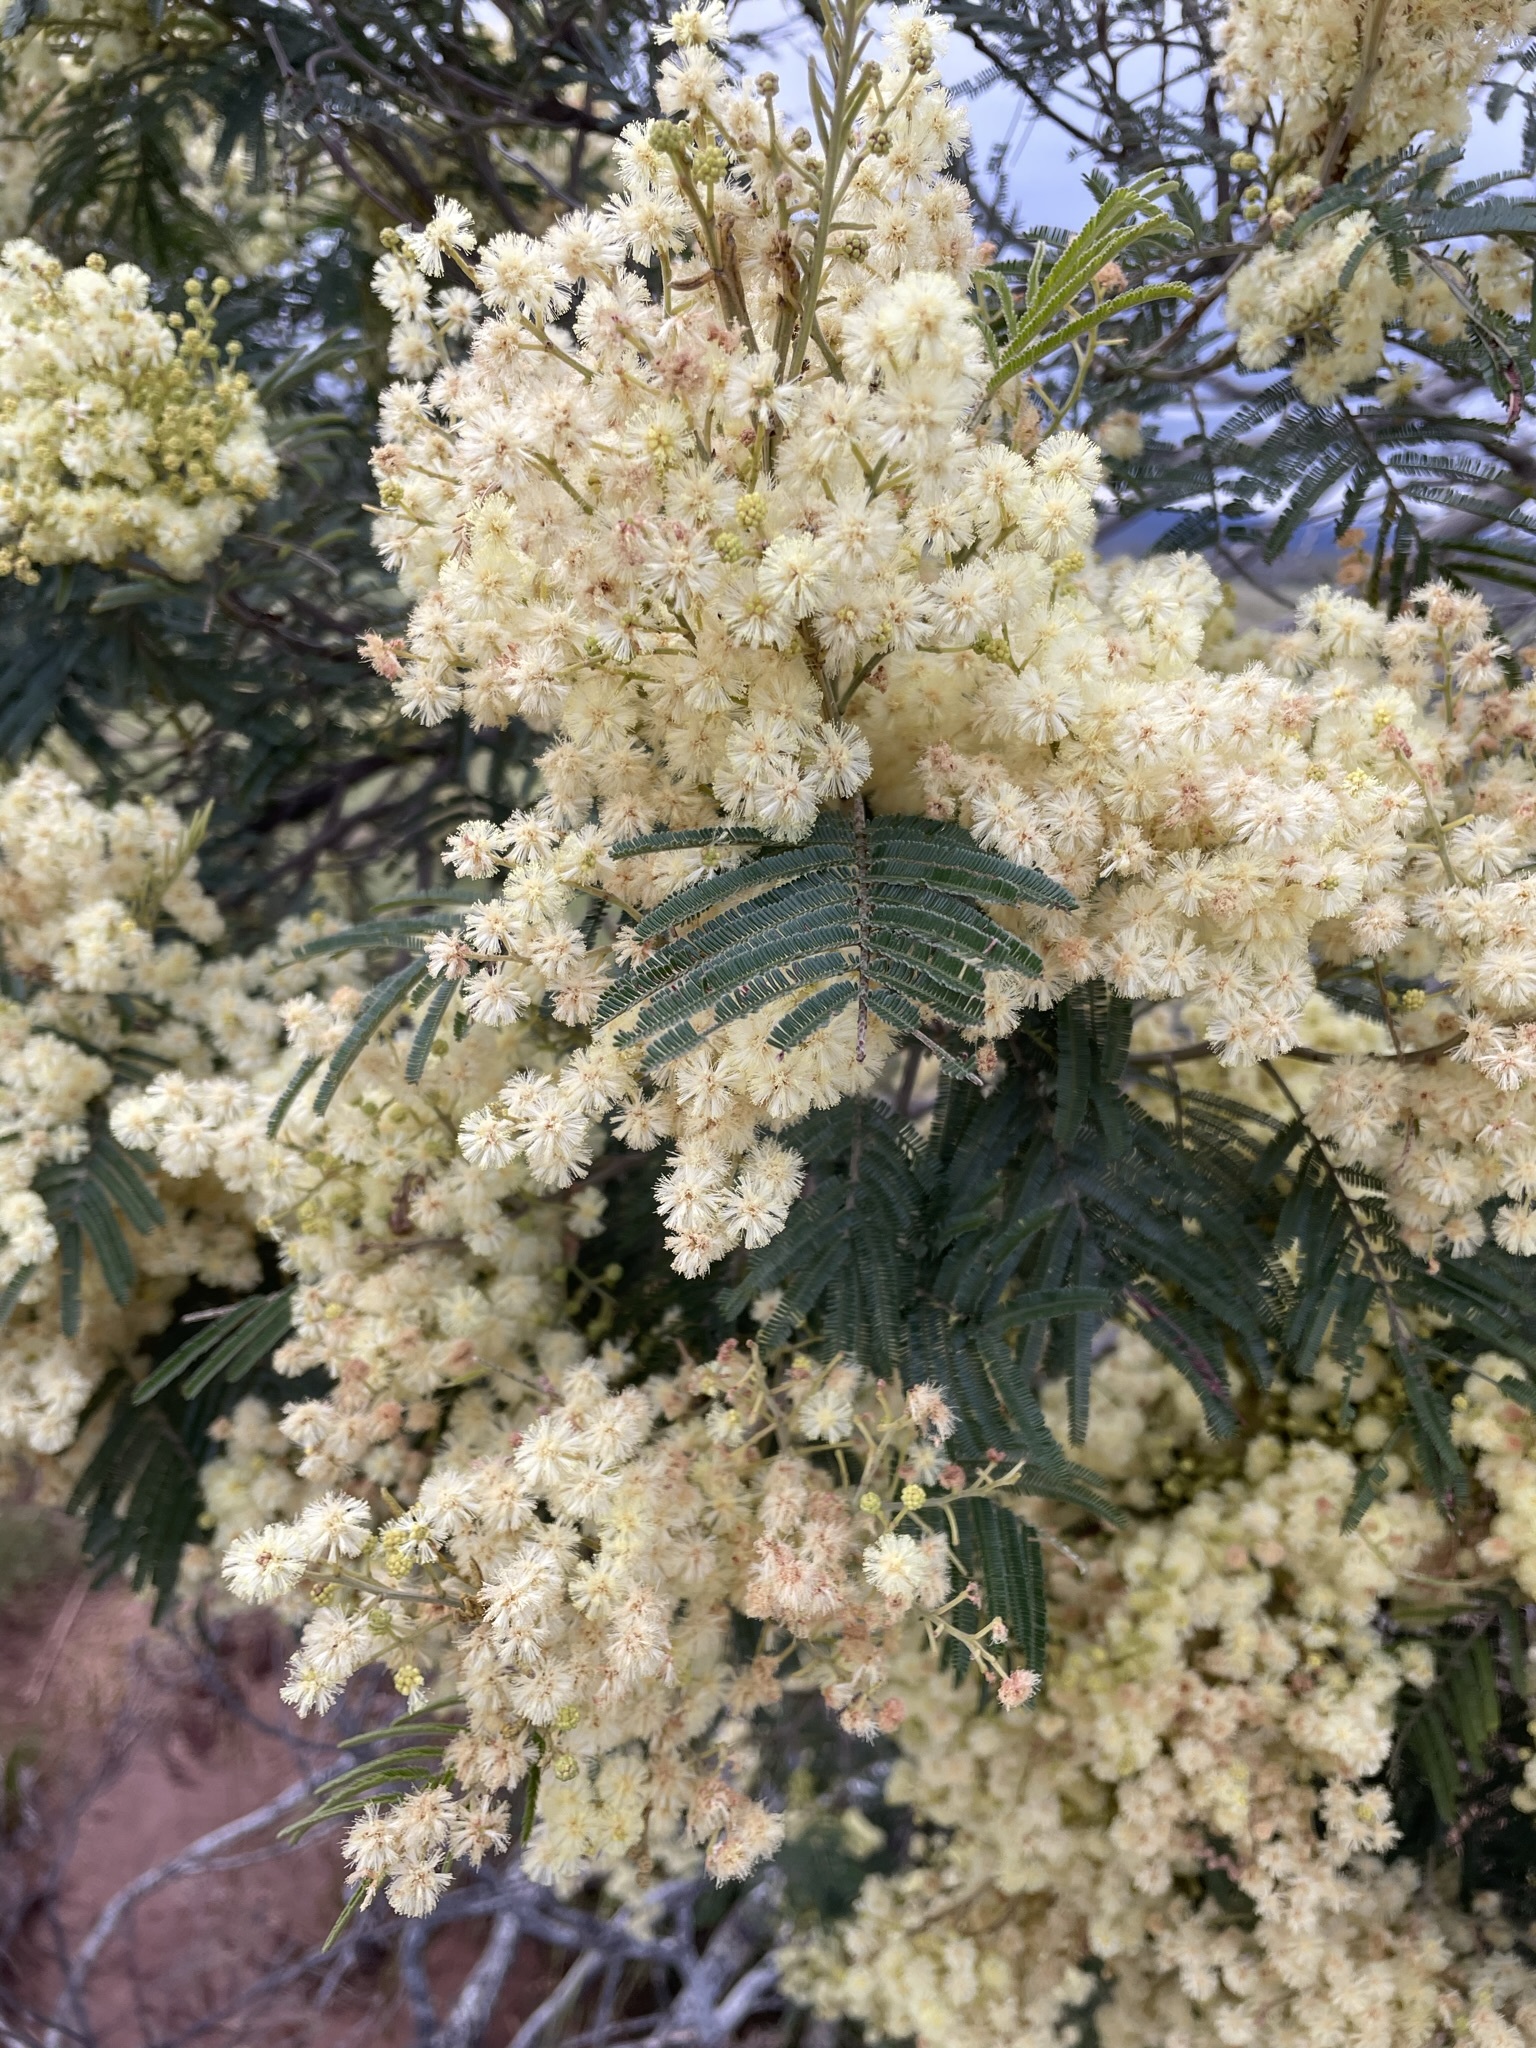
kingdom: Plantae
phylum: Tracheophyta
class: Magnoliopsida
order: Fabales
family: Fabaceae
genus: Acacia
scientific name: Acacia mearnsii
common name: Black wattle
